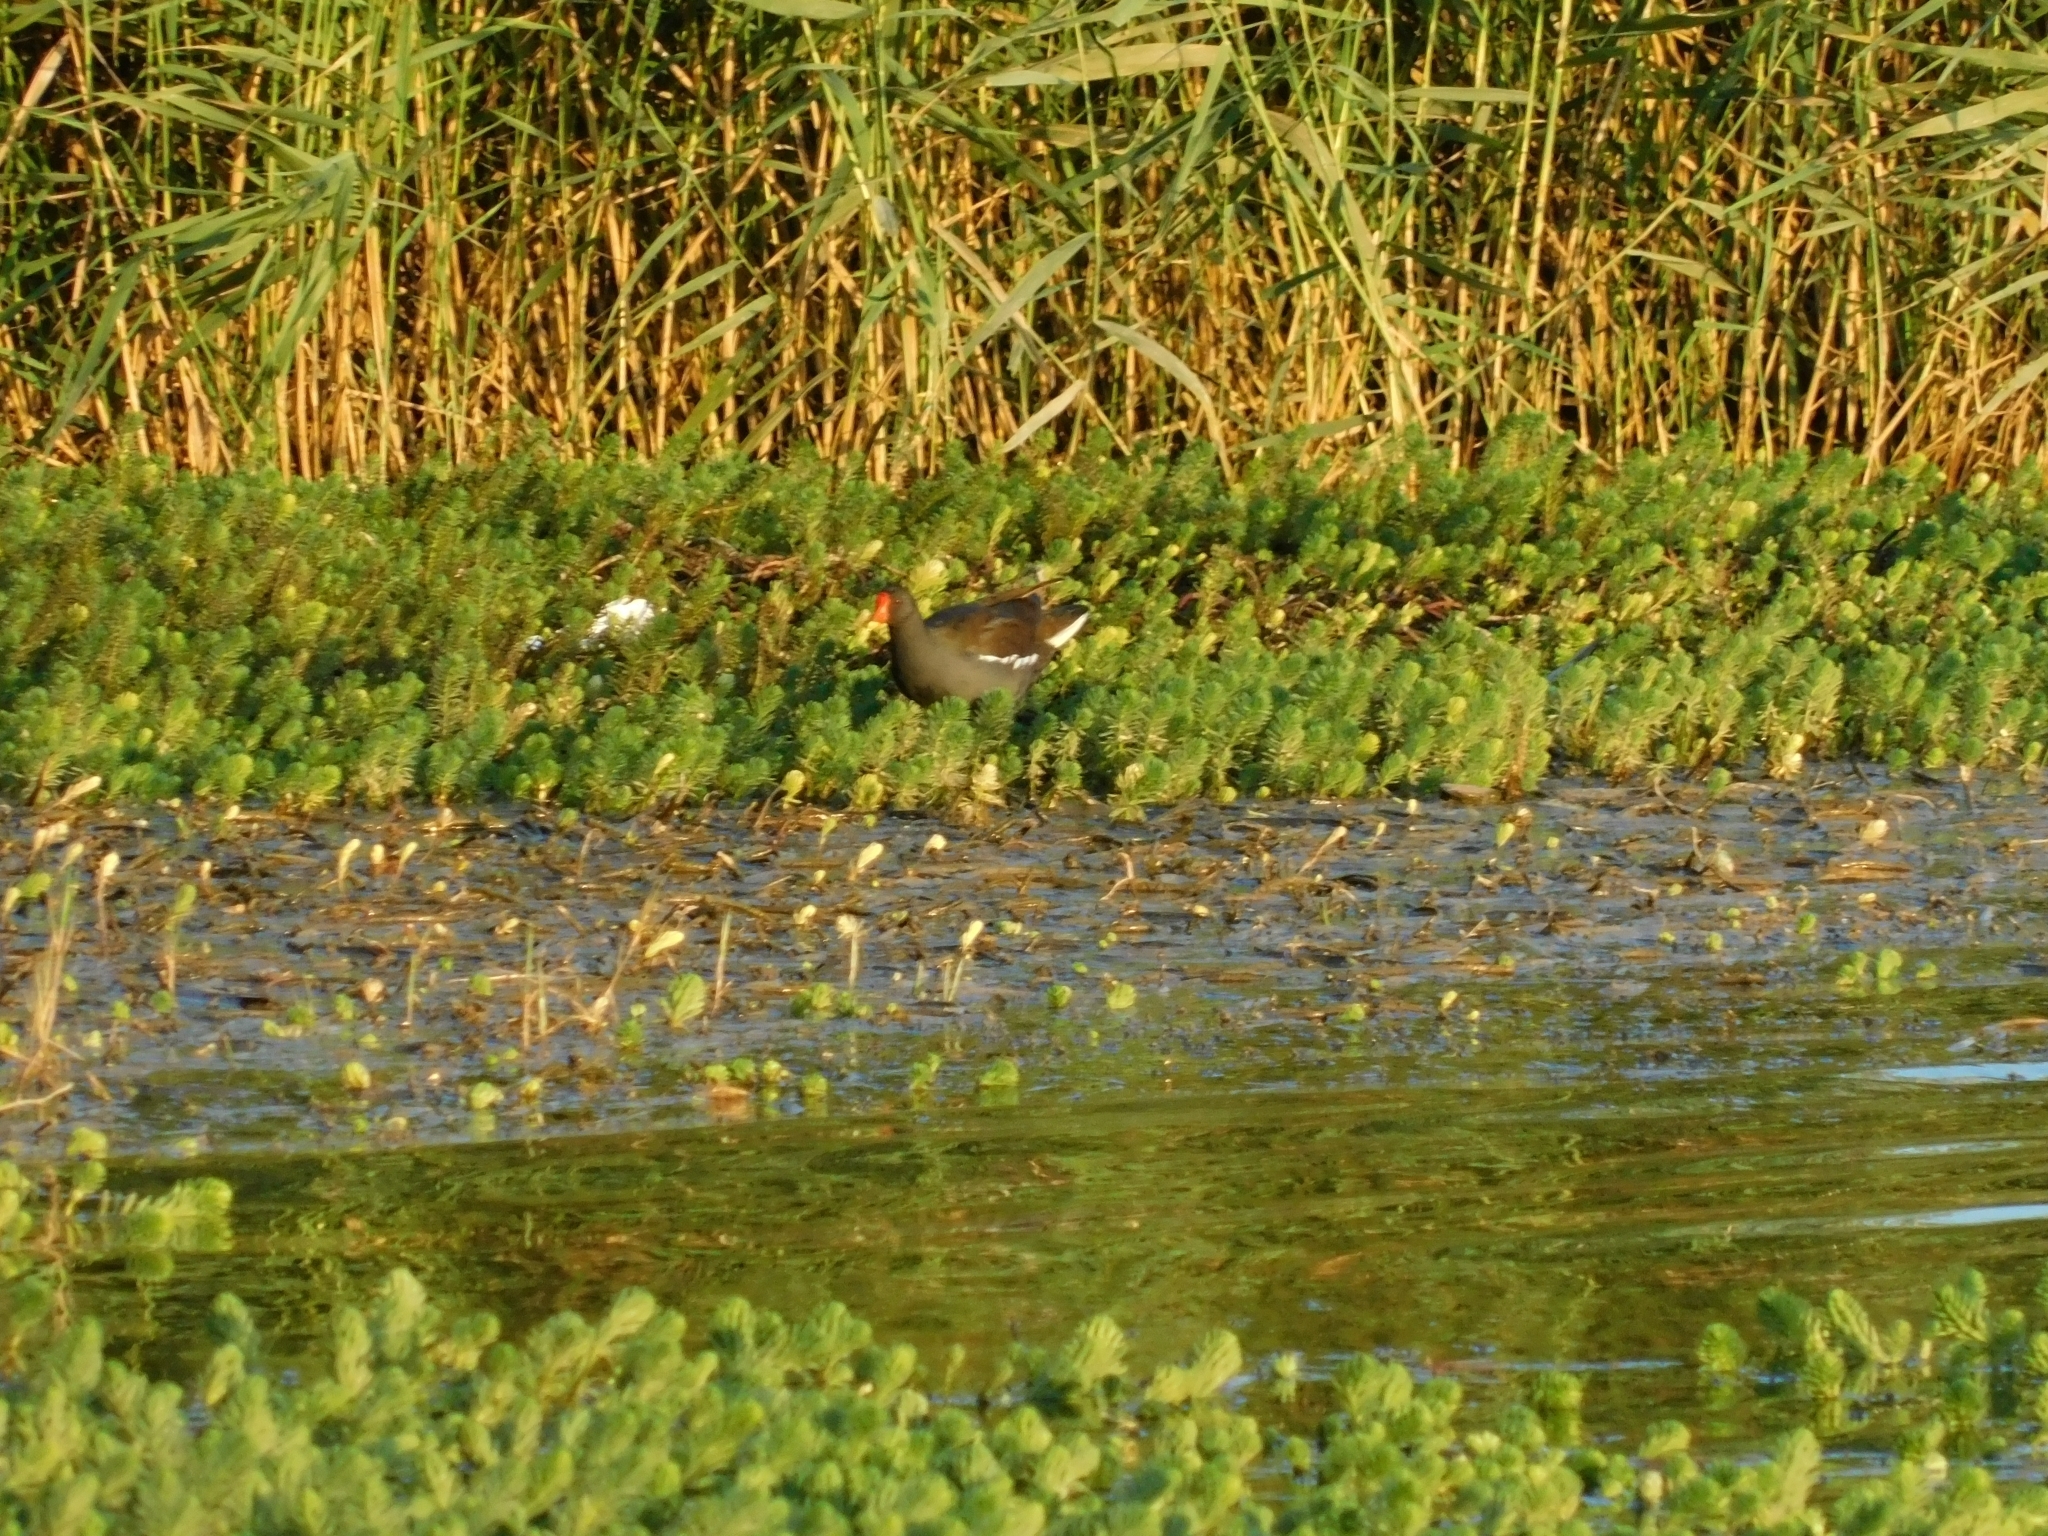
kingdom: Animalia
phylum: Chordata
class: Aves
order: Gruiformes
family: Rallidae
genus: Gallinula
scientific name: Gallinula chloropus
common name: Common moorhen
